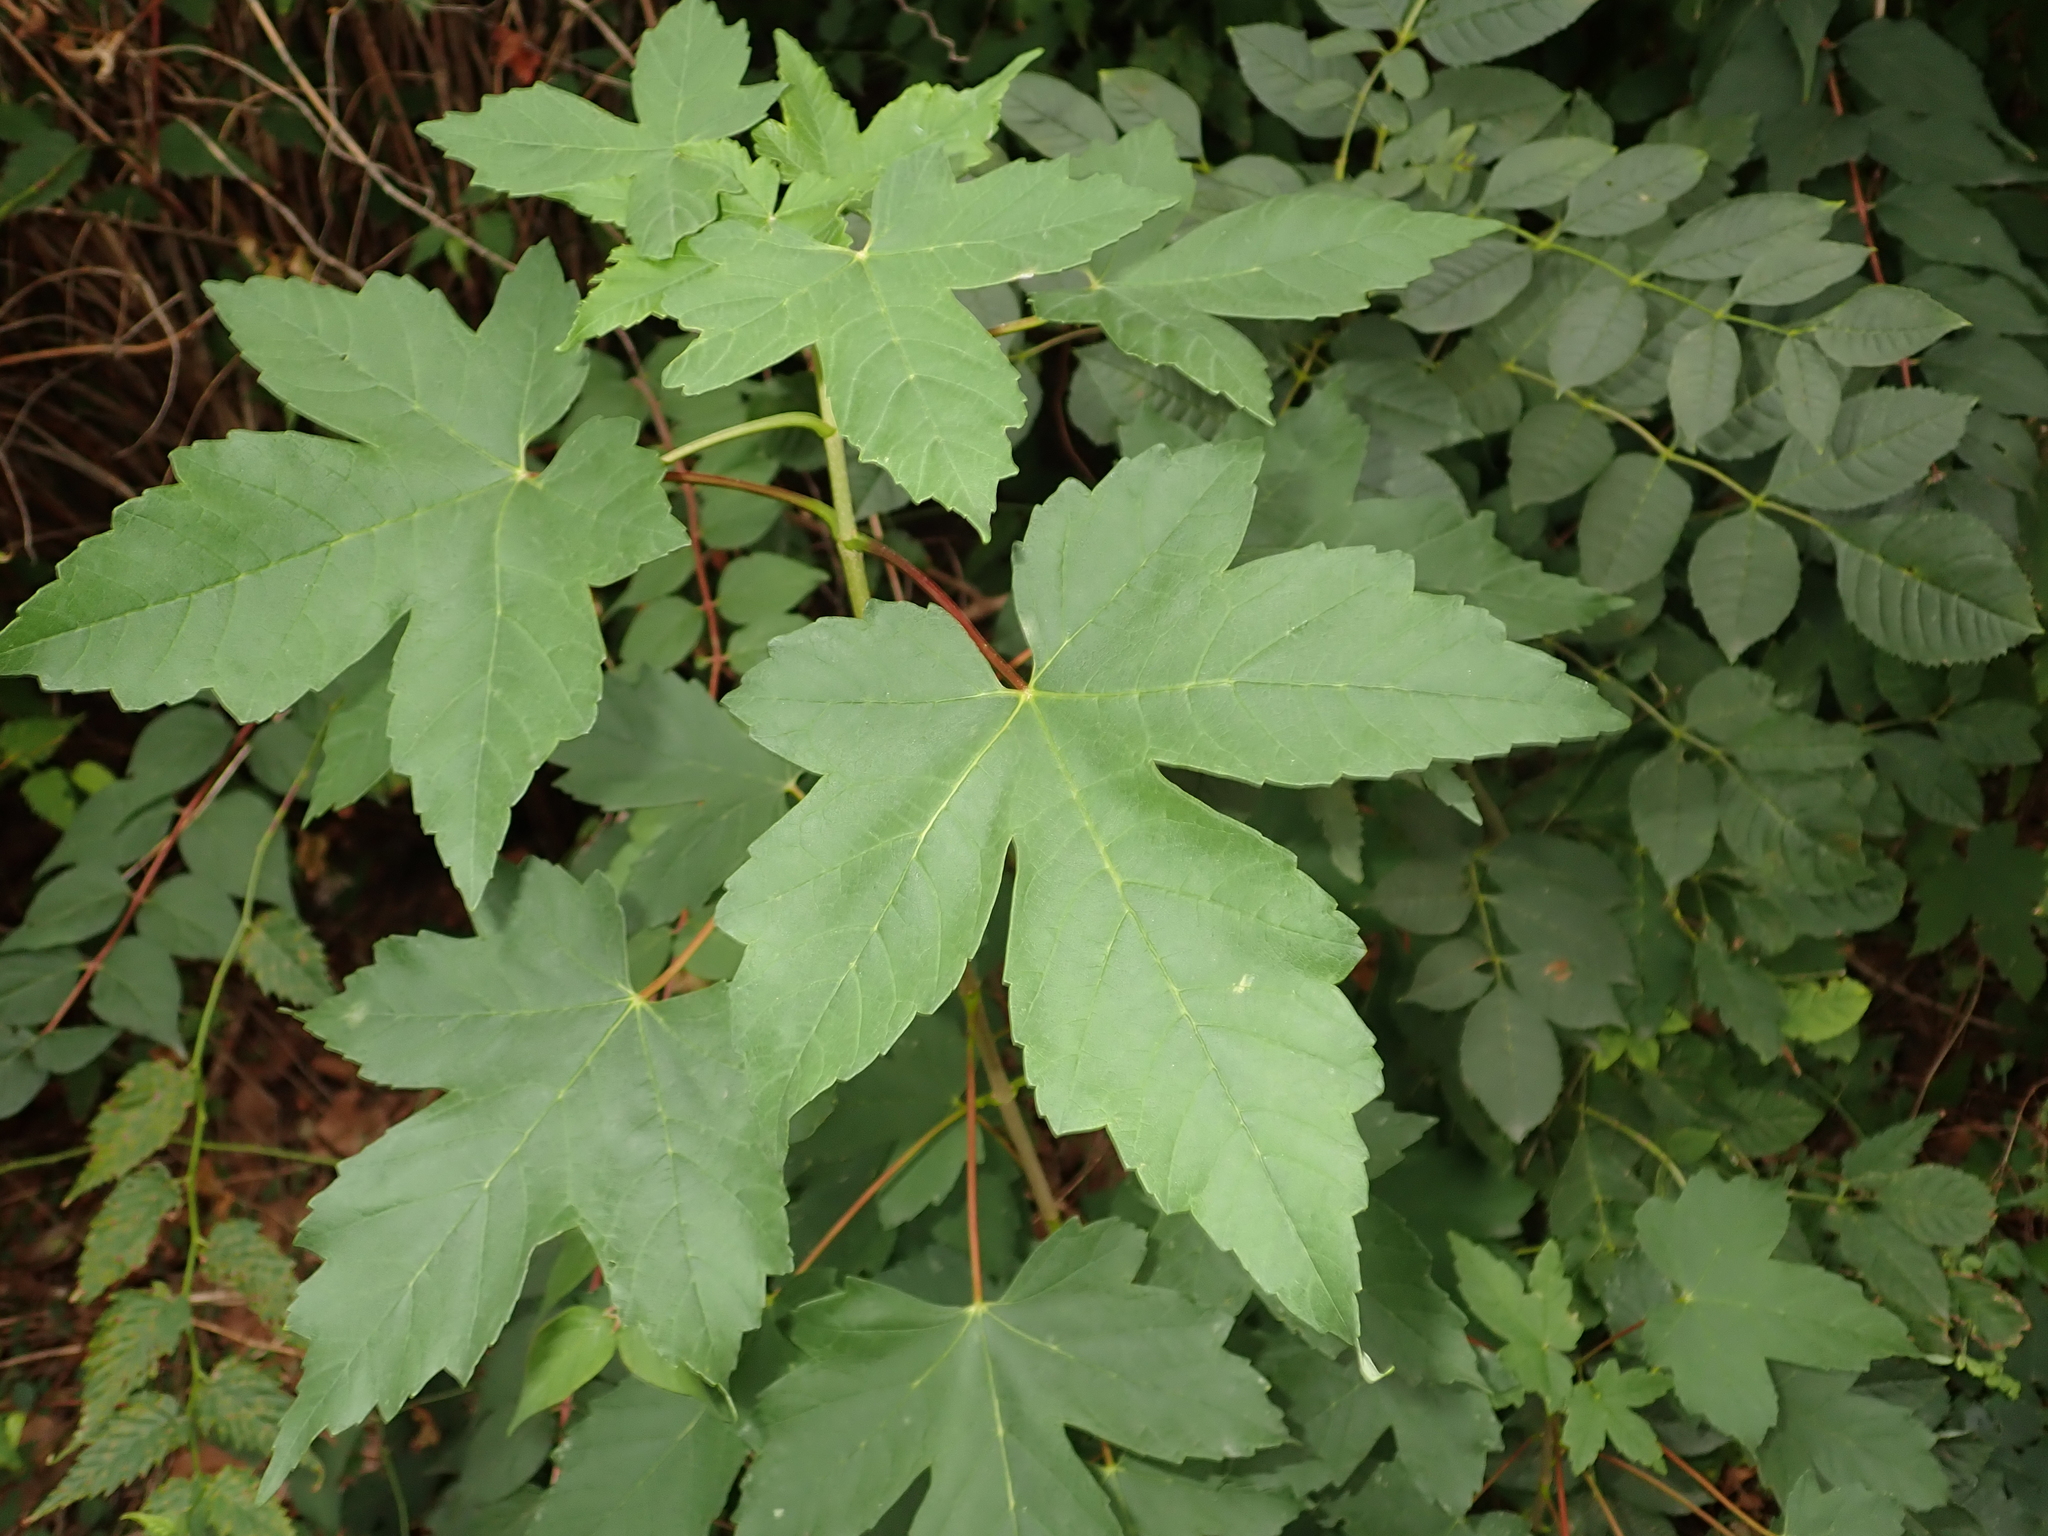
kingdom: Plantae
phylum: Tracheophyta
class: Magnoliopsida
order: Sapindales
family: Sapindaceae
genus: Acer
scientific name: Acer pseudoplatanus
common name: Sycamore
